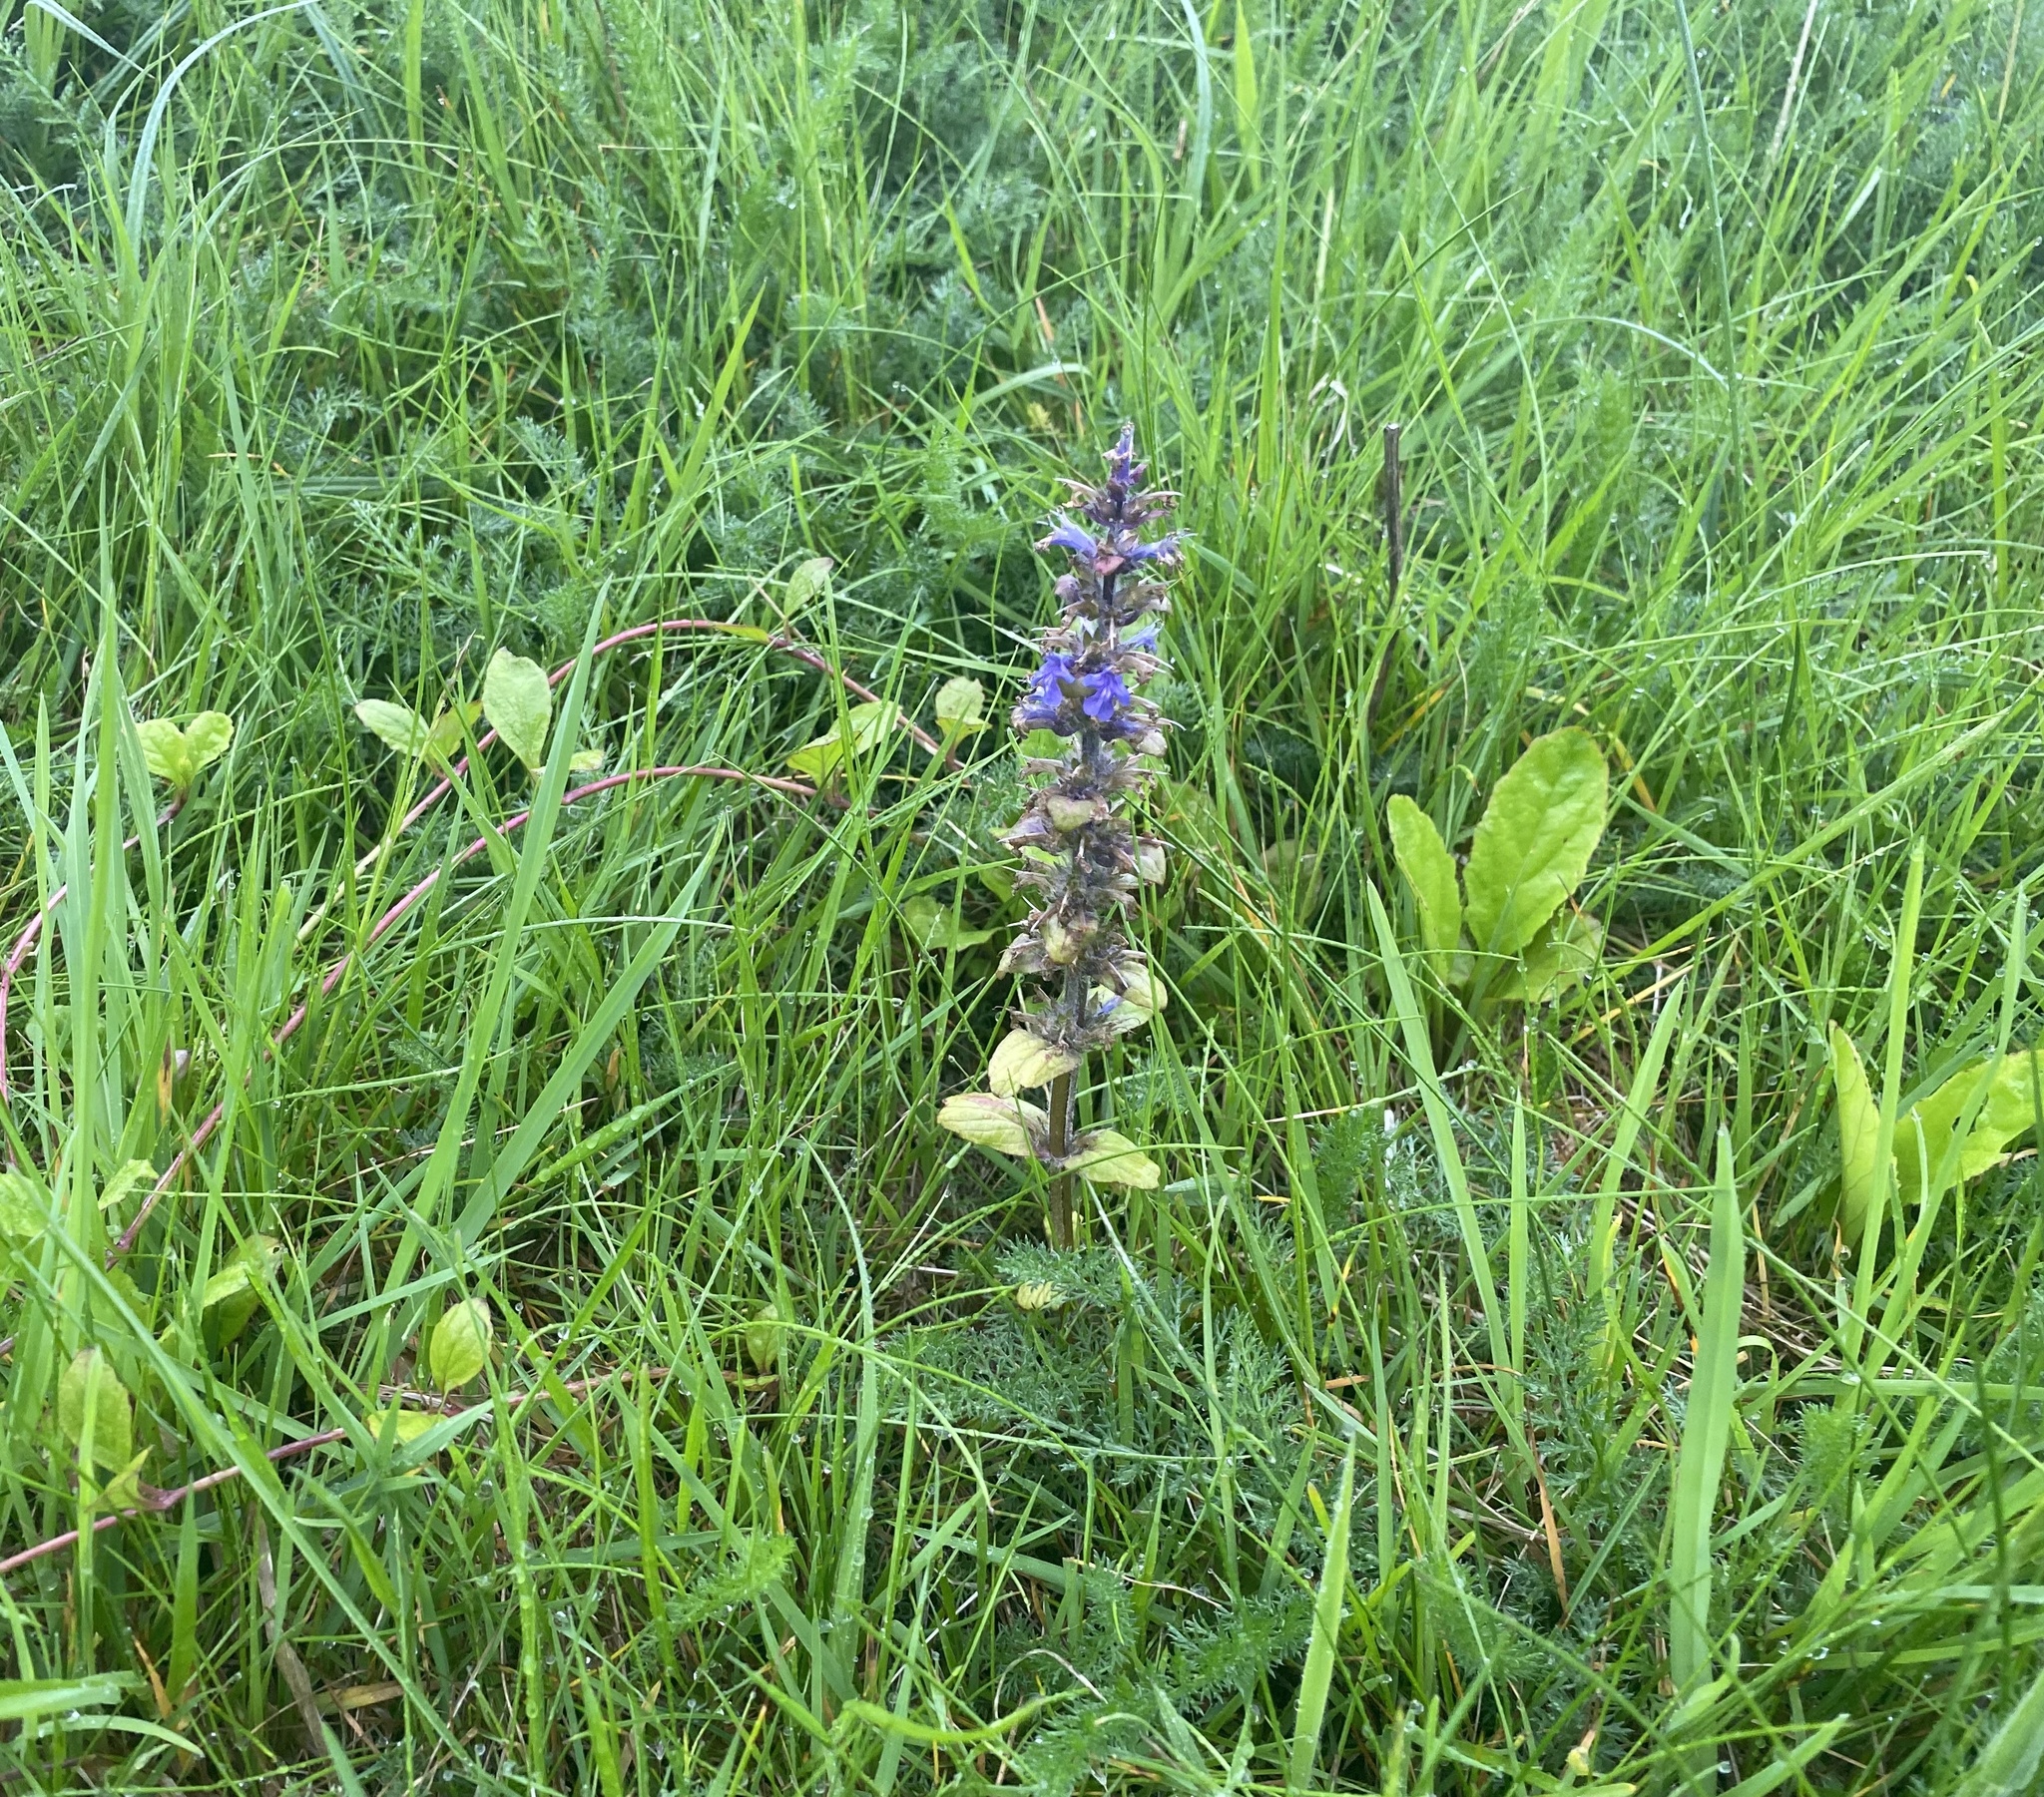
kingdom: Plantae
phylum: Tracheophyta
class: Magnoliopsida
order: Lamiales
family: Lamiaceae
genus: Ajuga
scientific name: Ajuga reptans
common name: Bugle
